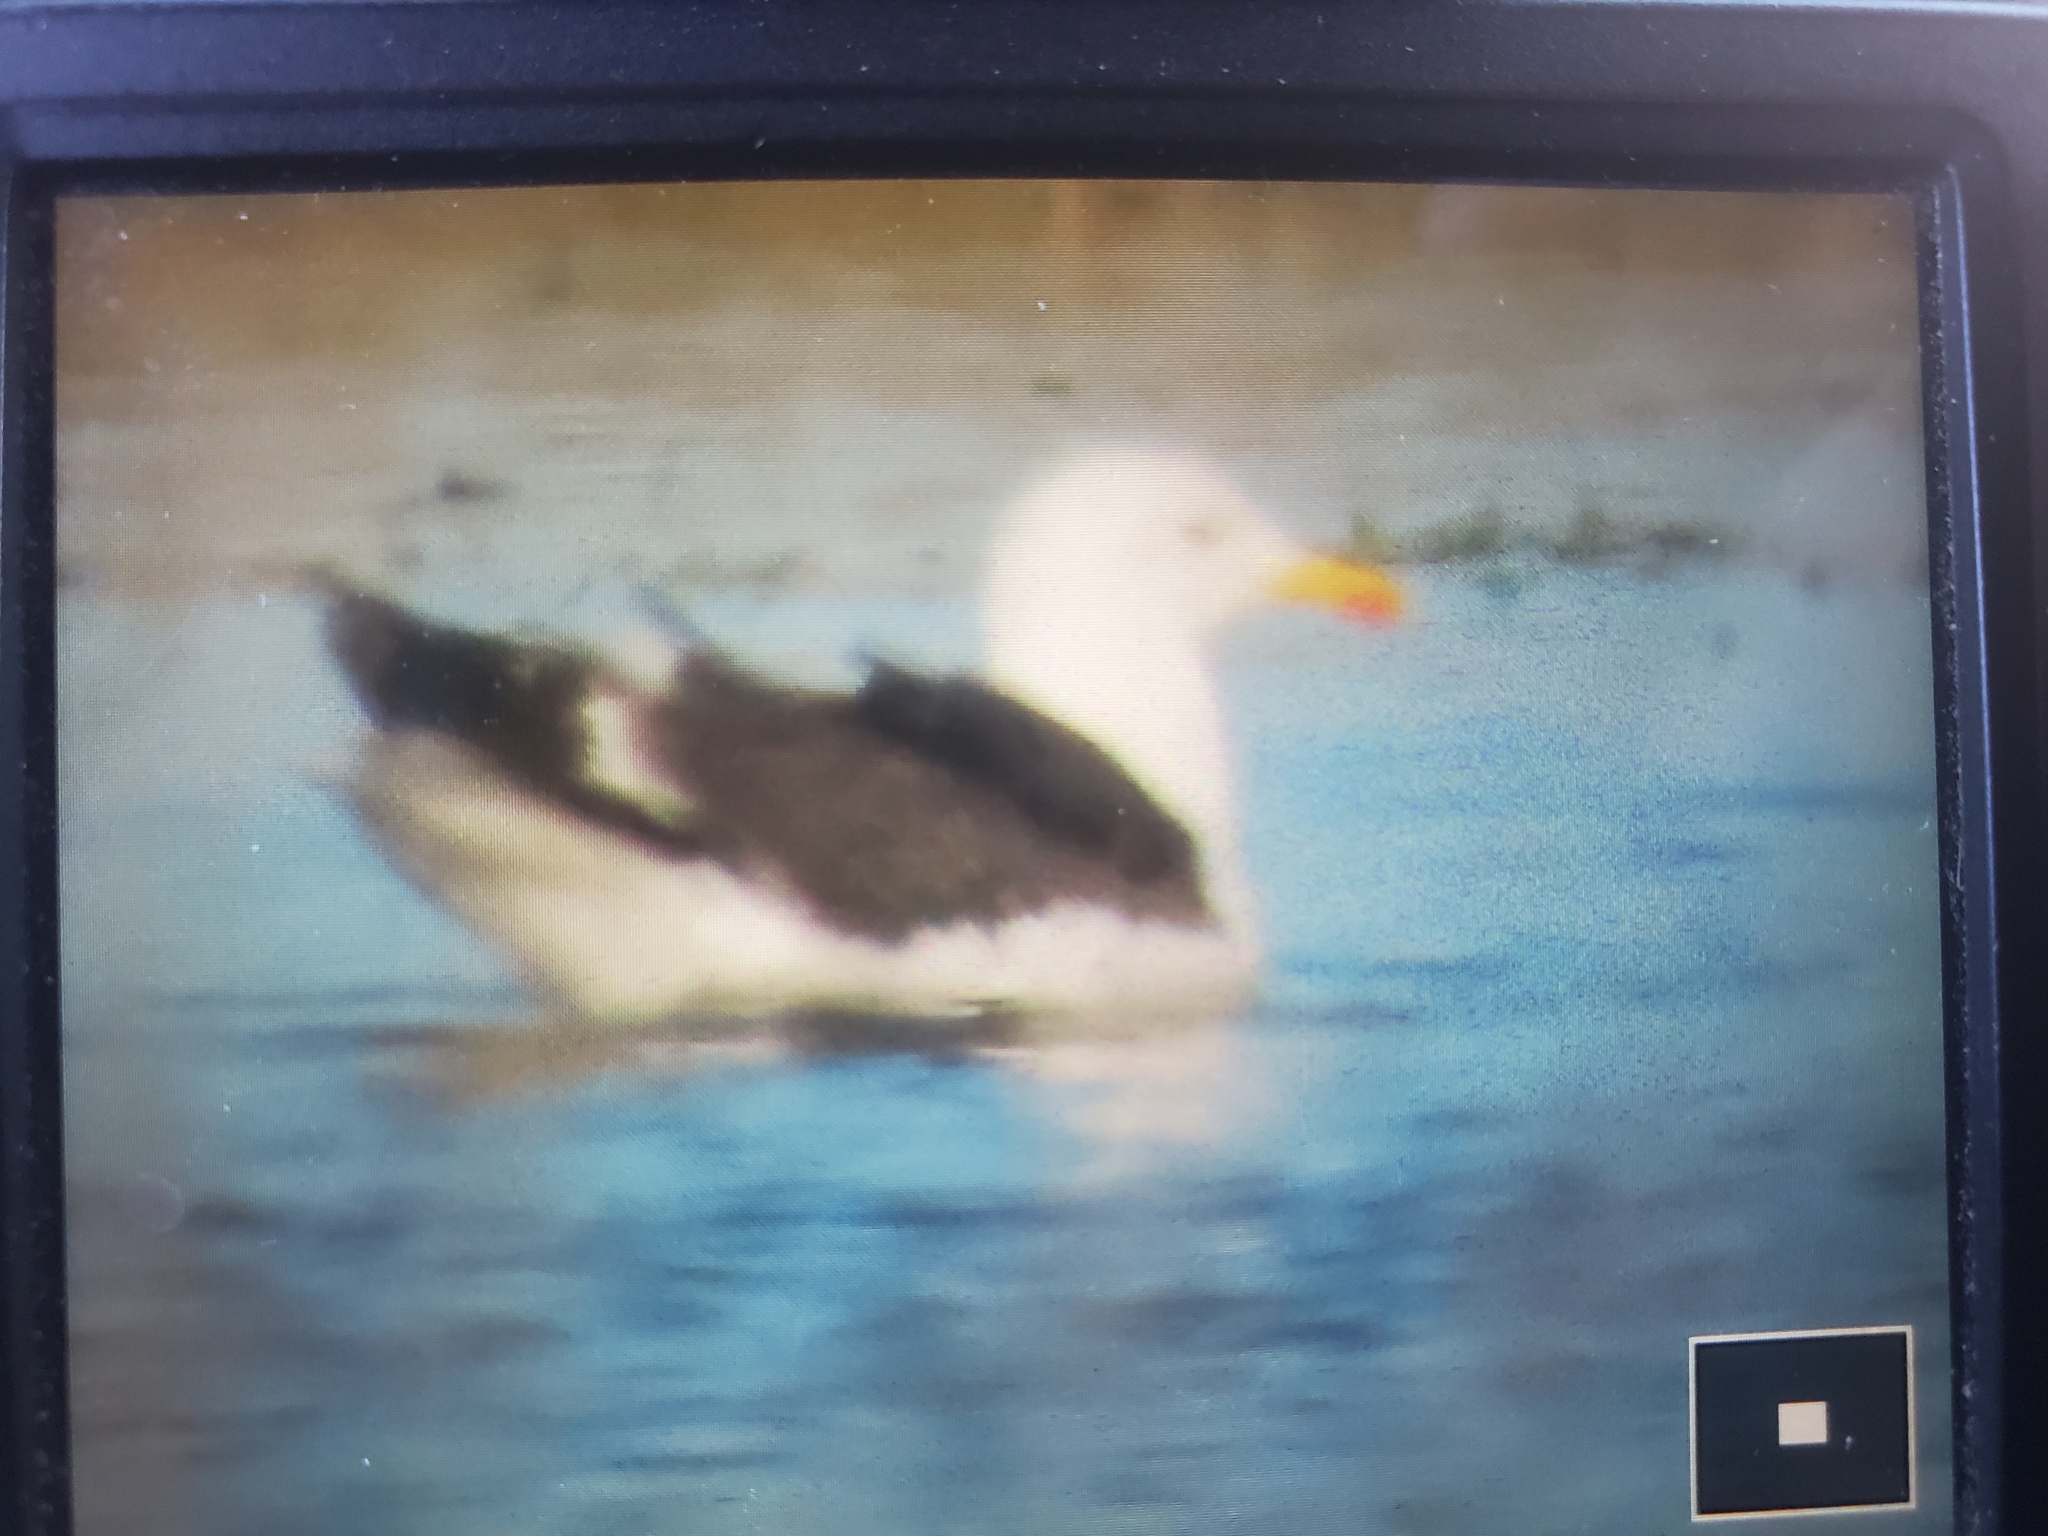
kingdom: Animalia
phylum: Chordata
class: Aves
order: Charadriiformes
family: Laridae
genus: Larus
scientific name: Larus marinus
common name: Great black-backed gull
